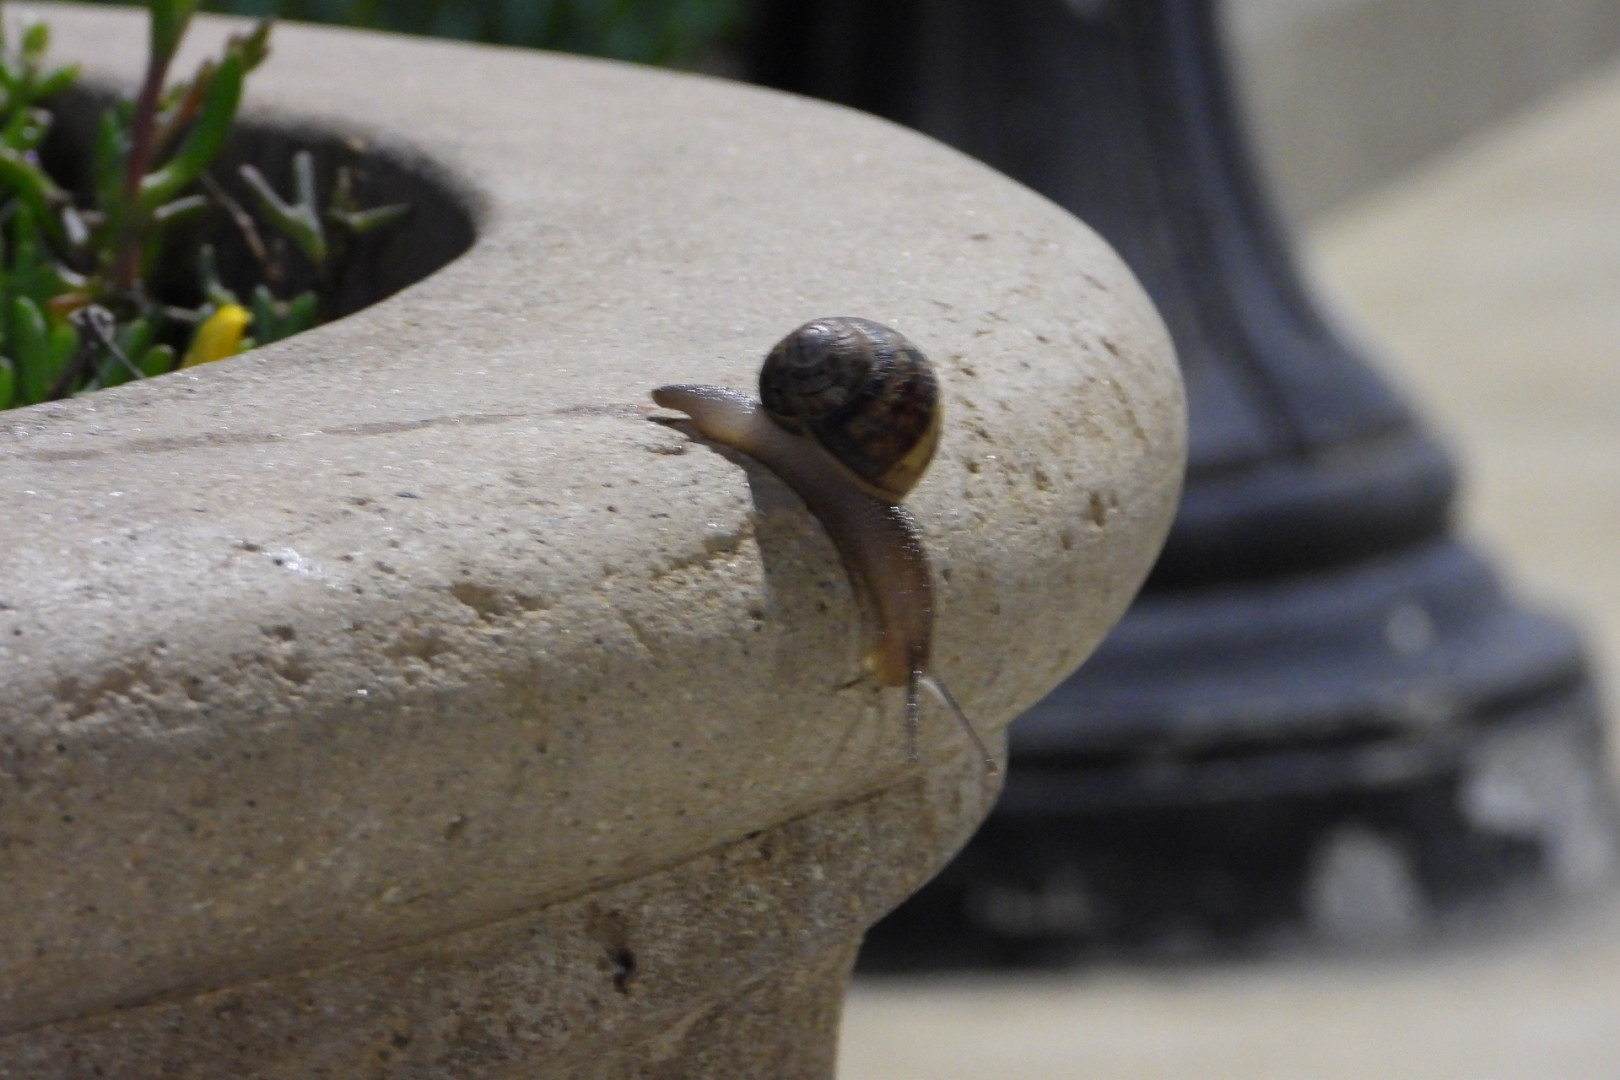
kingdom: Animalia
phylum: Mollusca
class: Gastropoda
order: Stylommatophora
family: Helicidae
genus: Cornu
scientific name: Cornu aspersum
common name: Brown garden snail
